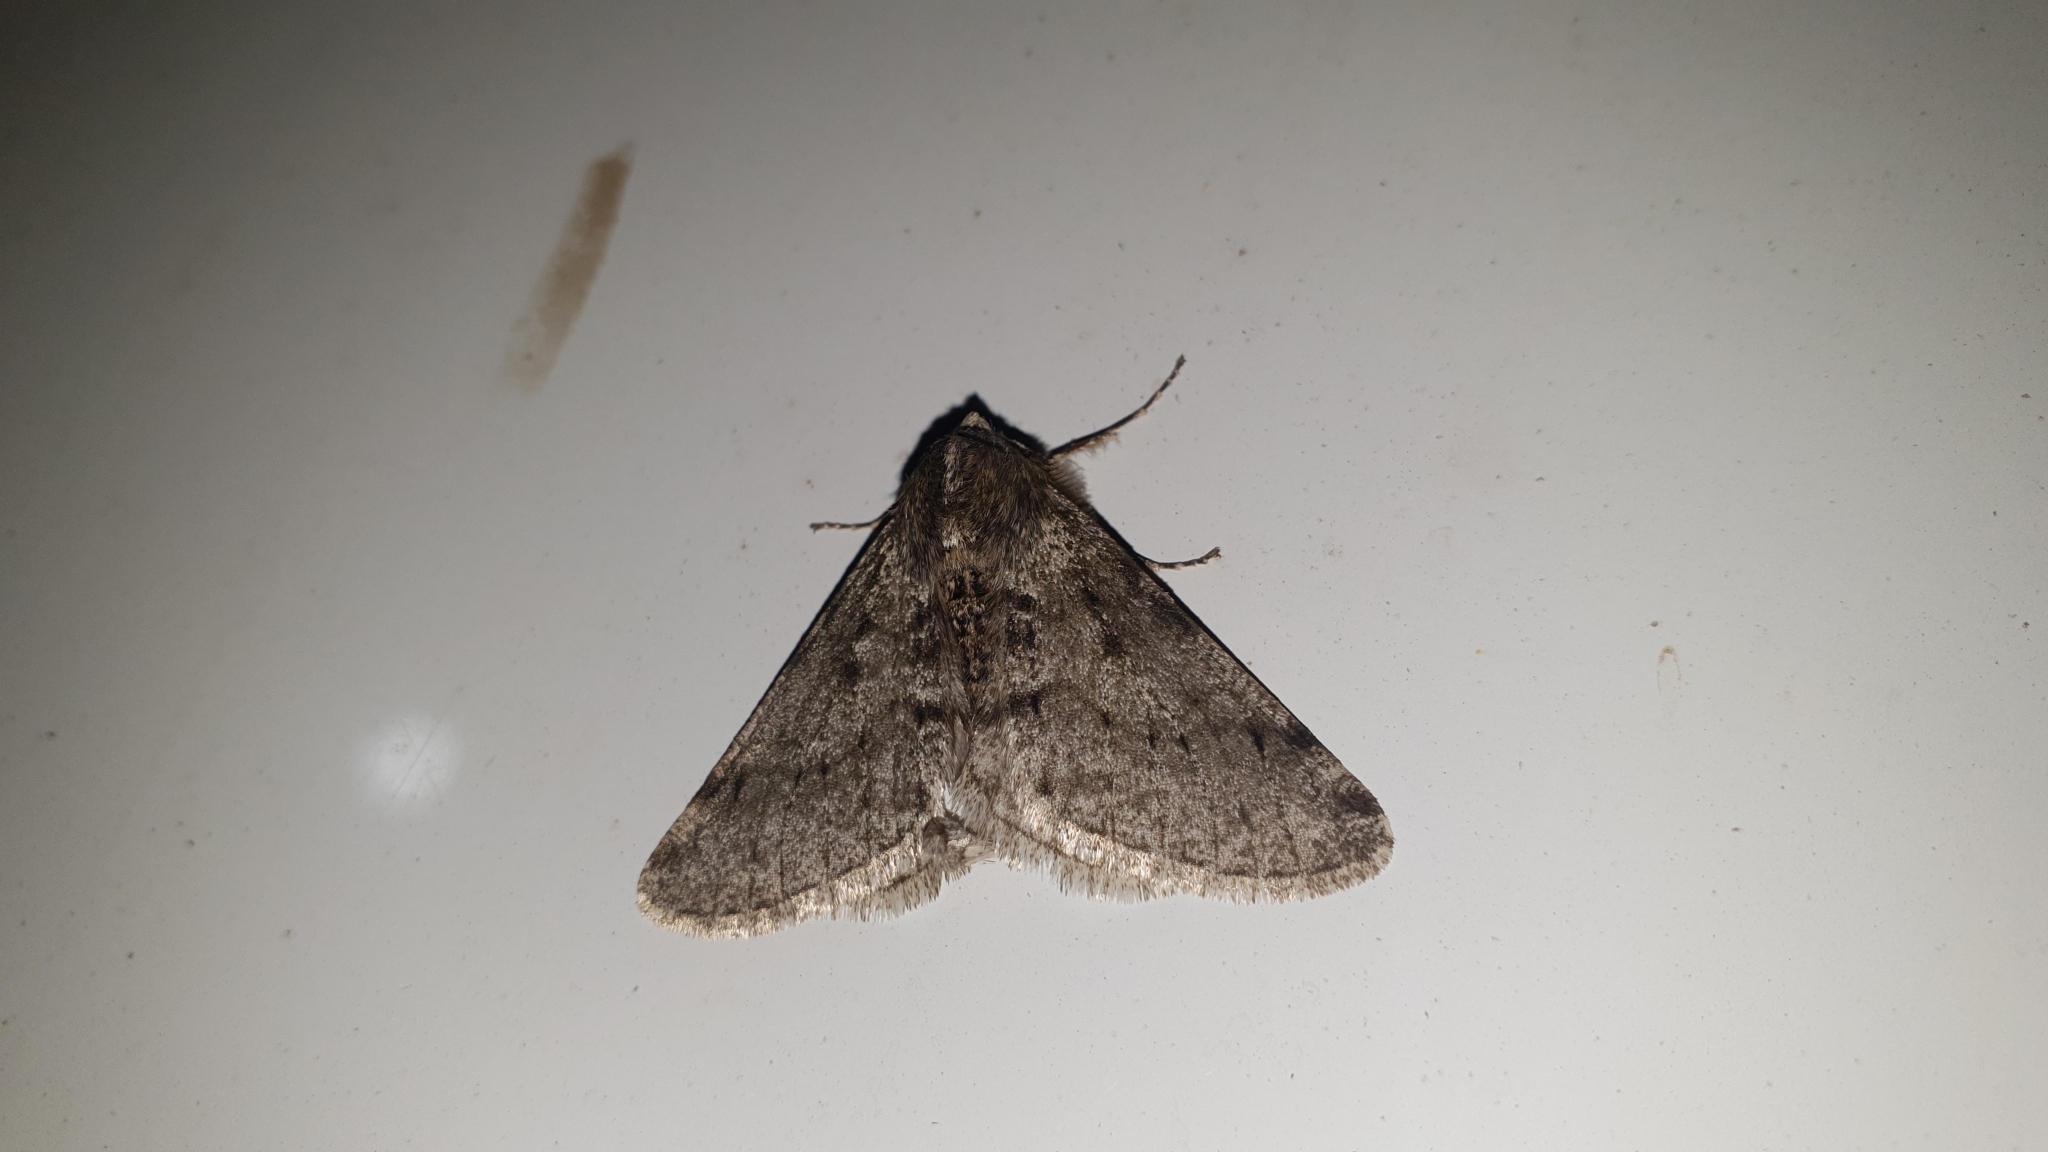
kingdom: Animalia
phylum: Arthropoda
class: Insecta
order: Lepidoptera
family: Geometridae
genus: Phigalia
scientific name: Phigalia pilosaria
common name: Pale brindled beauty
